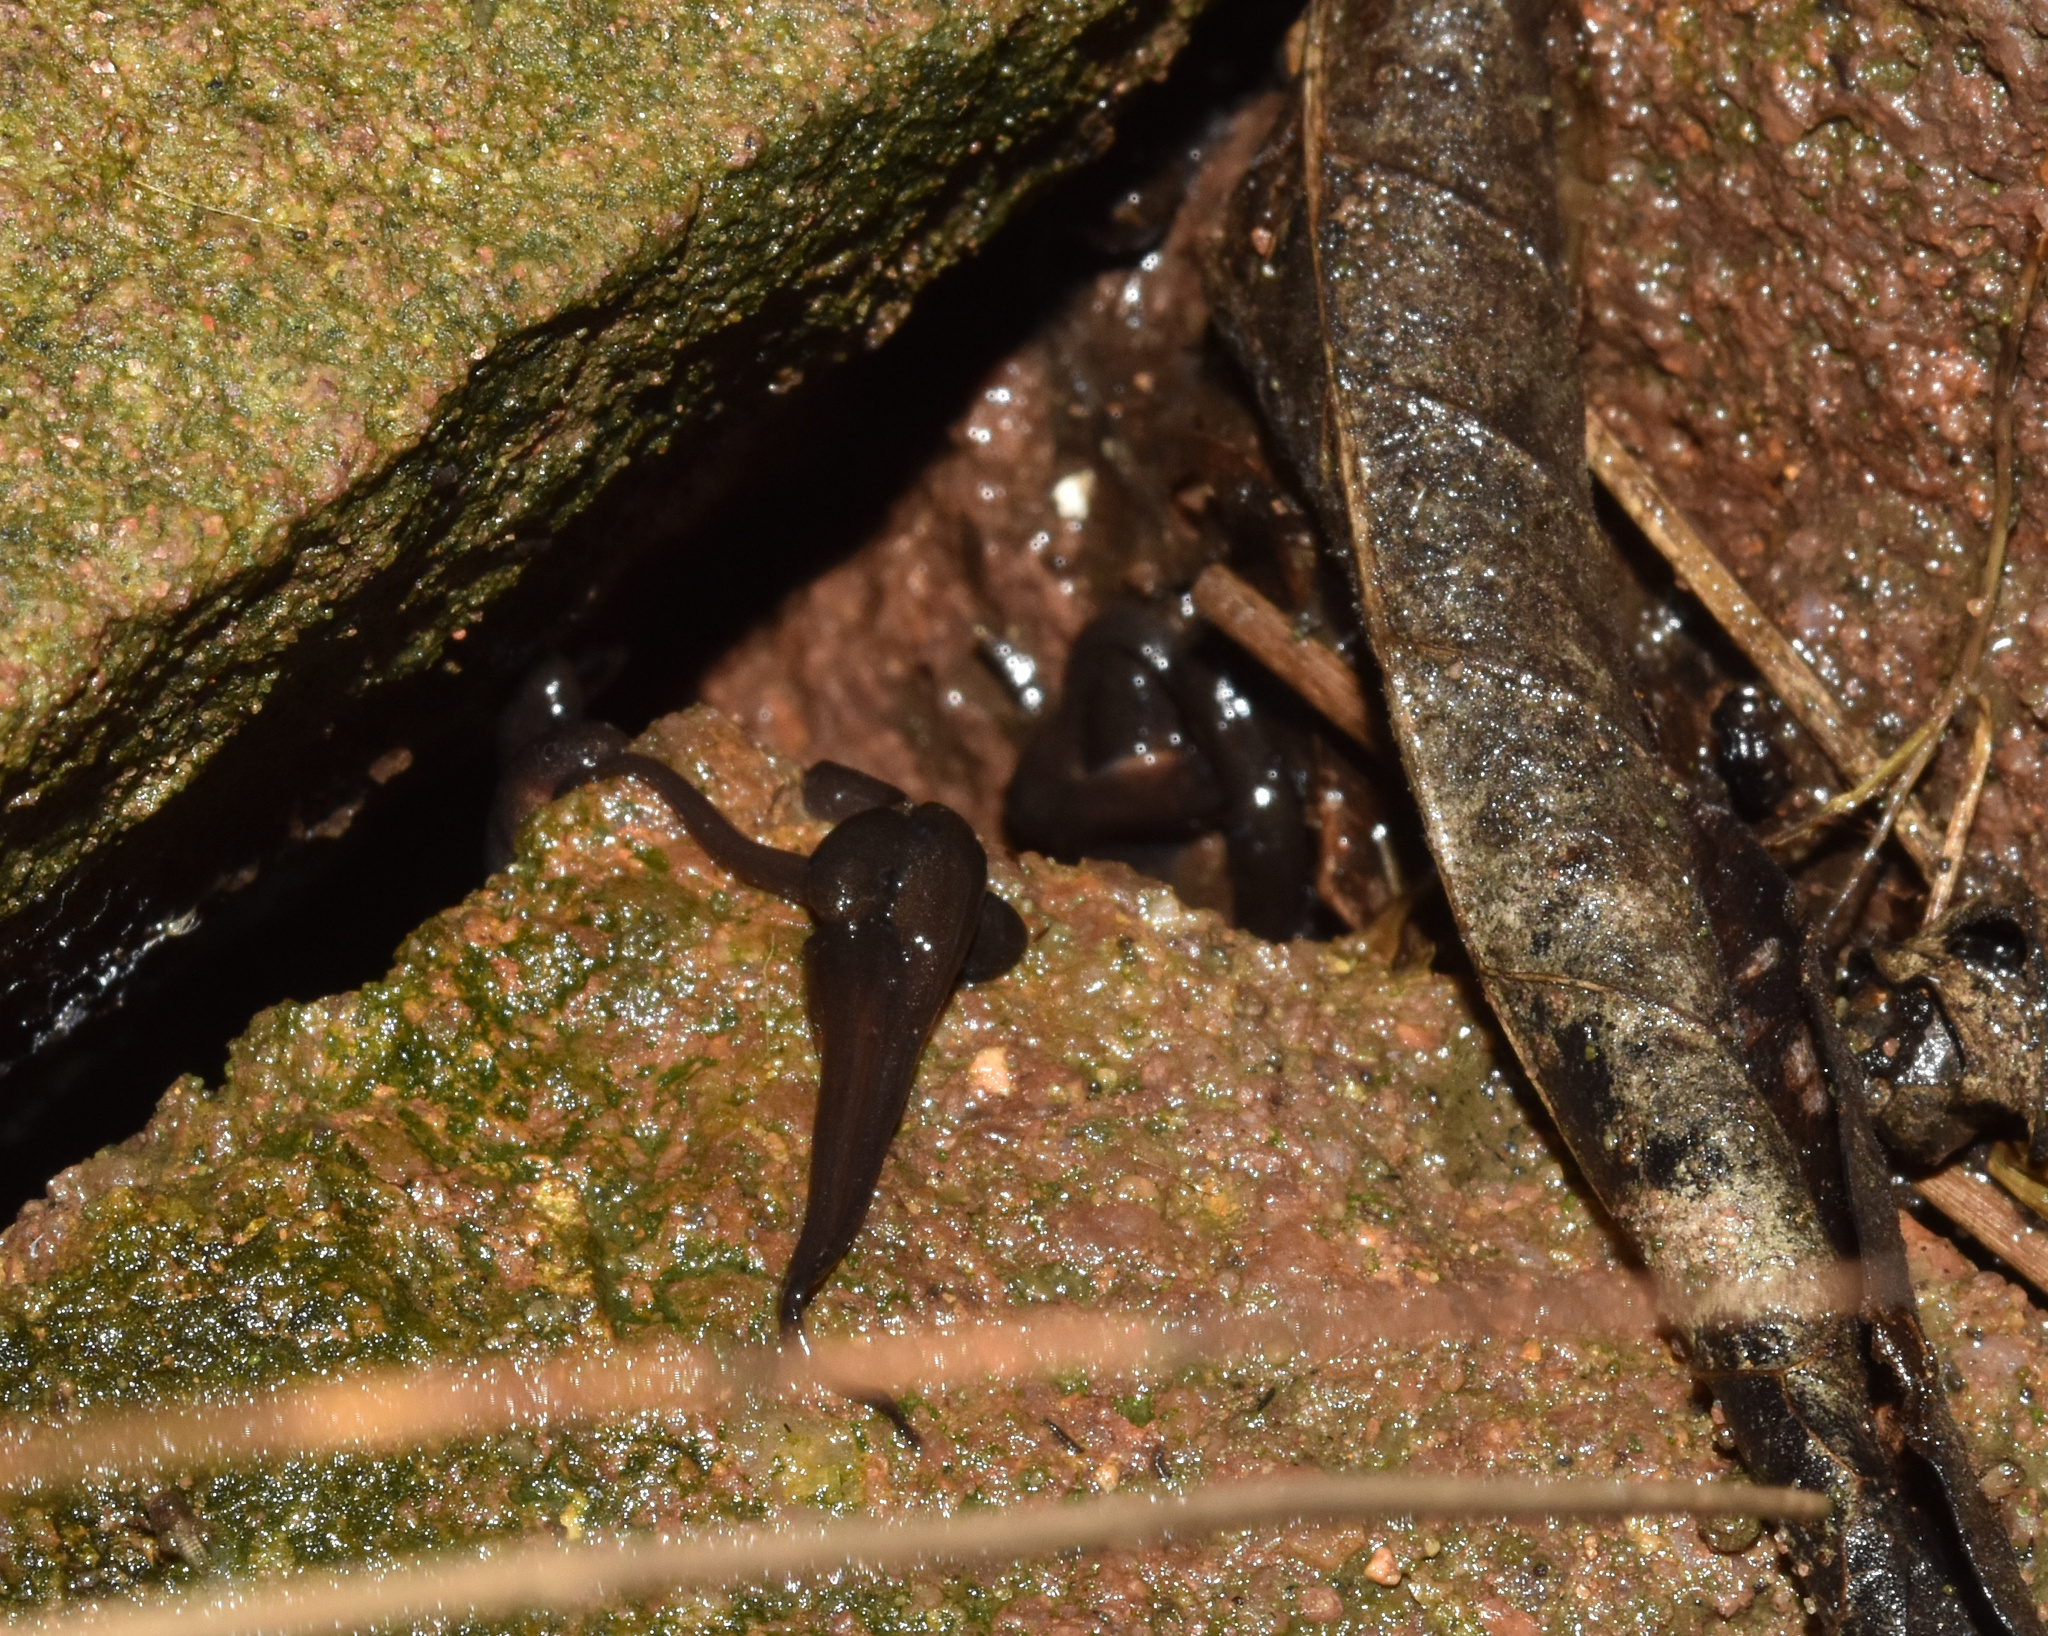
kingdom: Animalia
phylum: Chordata
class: Amphibia
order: Anura
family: Arthroleptidae
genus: Leptopelis
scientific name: Leptopelis natalensis
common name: Natal tree frog
